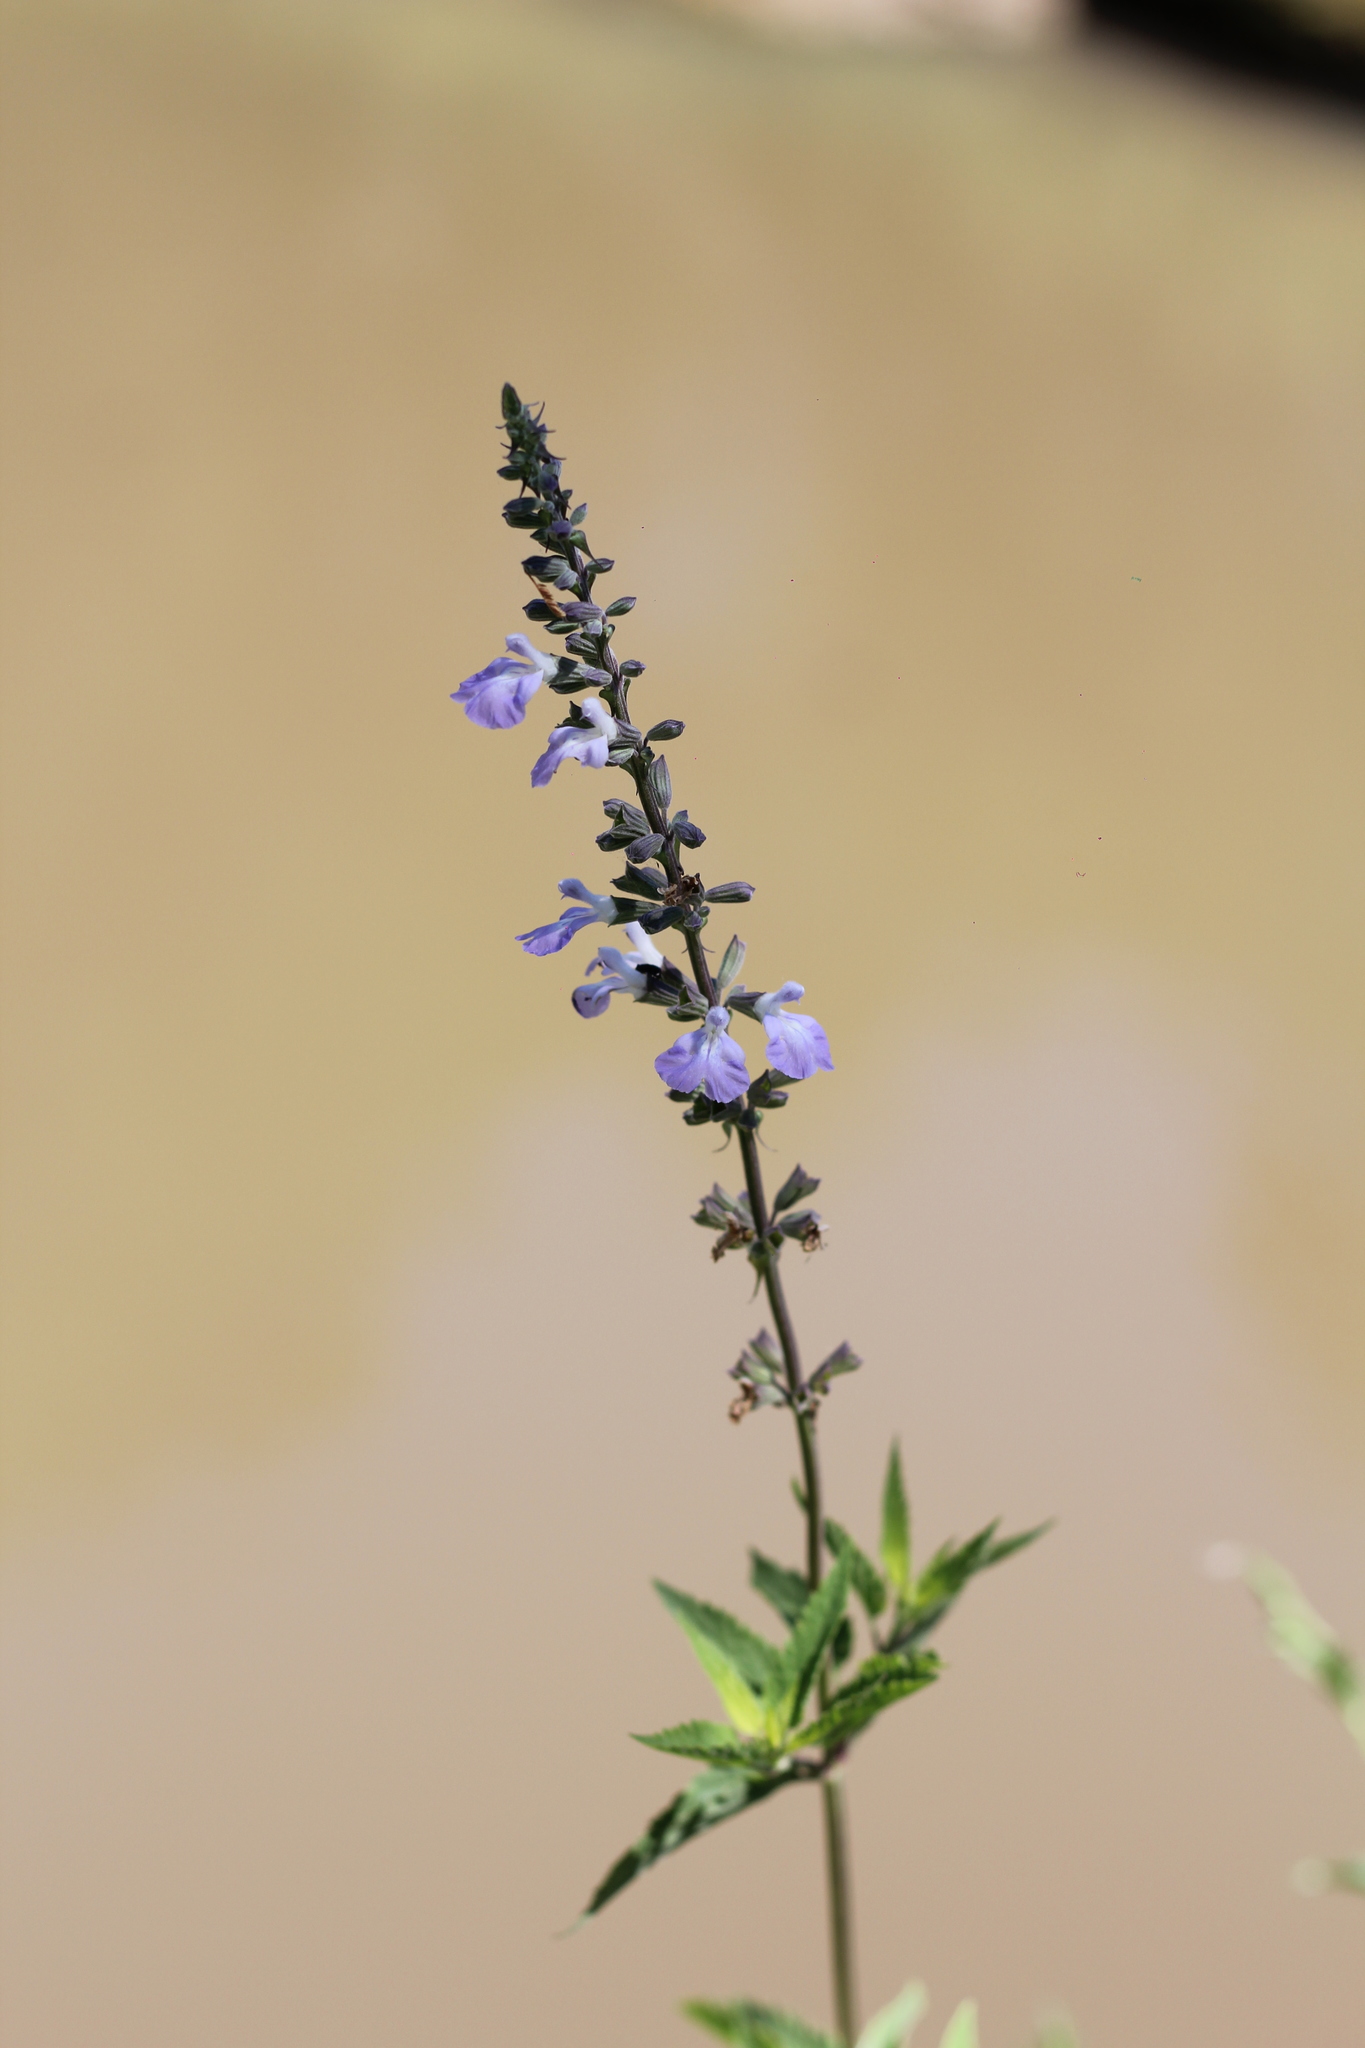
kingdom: Plantae
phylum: Tracheophyta
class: Magnoliopsida
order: Lamiales
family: Lamiaceae
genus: Salvia
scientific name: Salvia pallida
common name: Pale sage
